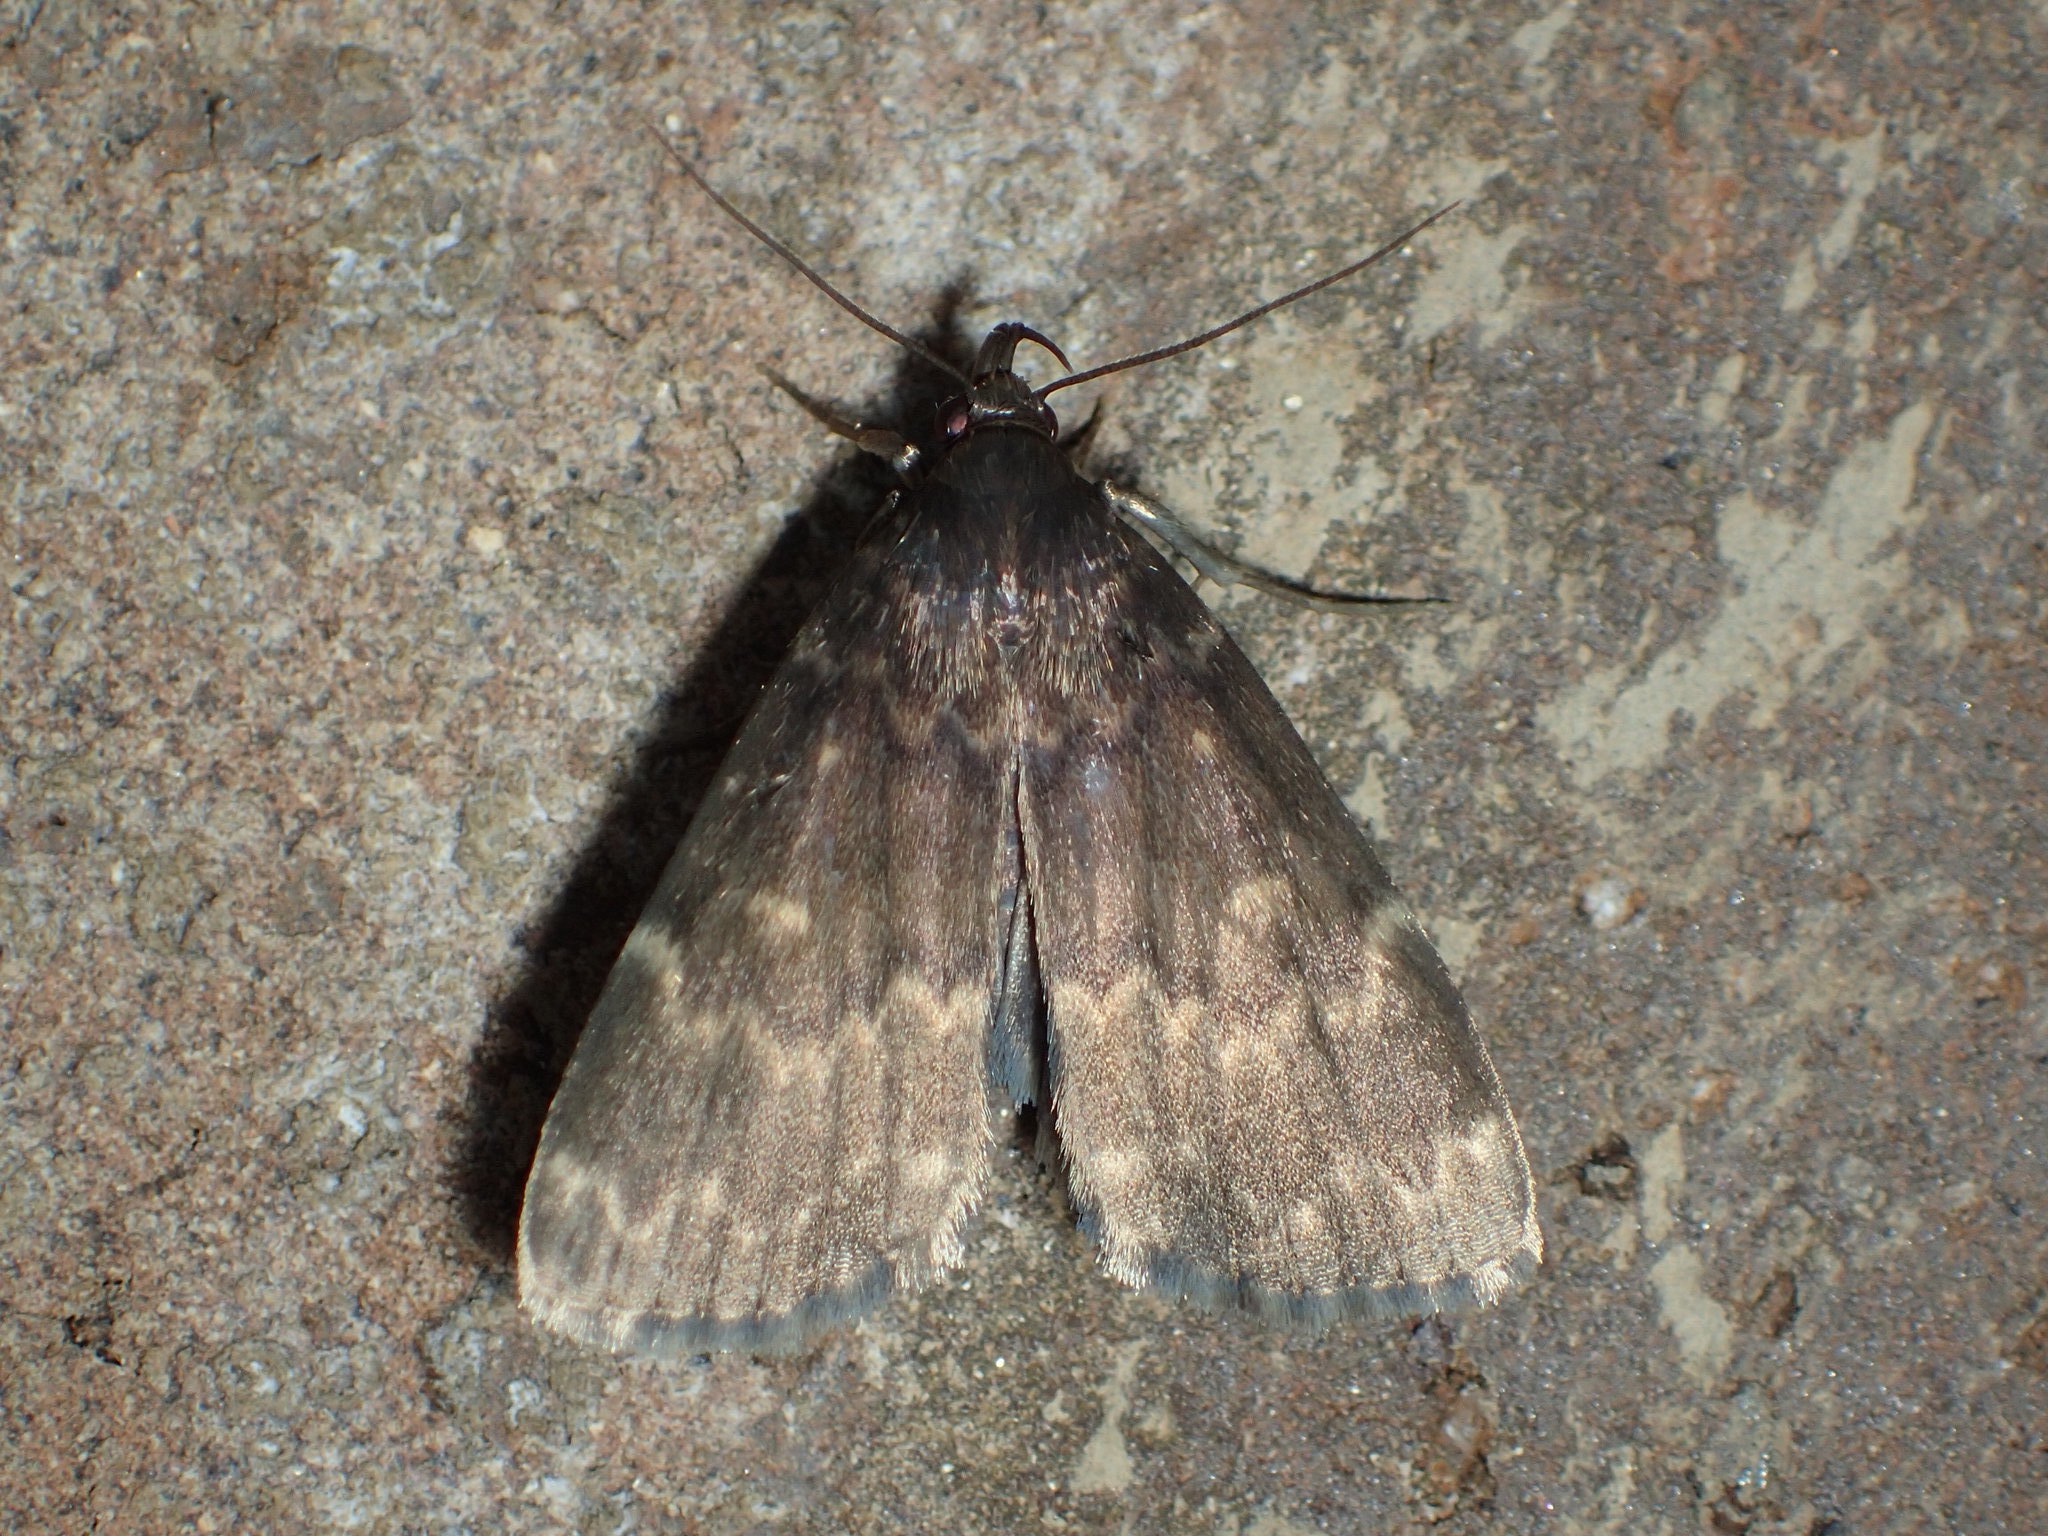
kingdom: Animalia
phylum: Arthropoda
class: Insecta
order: Lepidoptera
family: Erebidae
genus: Idia
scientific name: Idia lubricalis
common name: Twin-striped tabby
